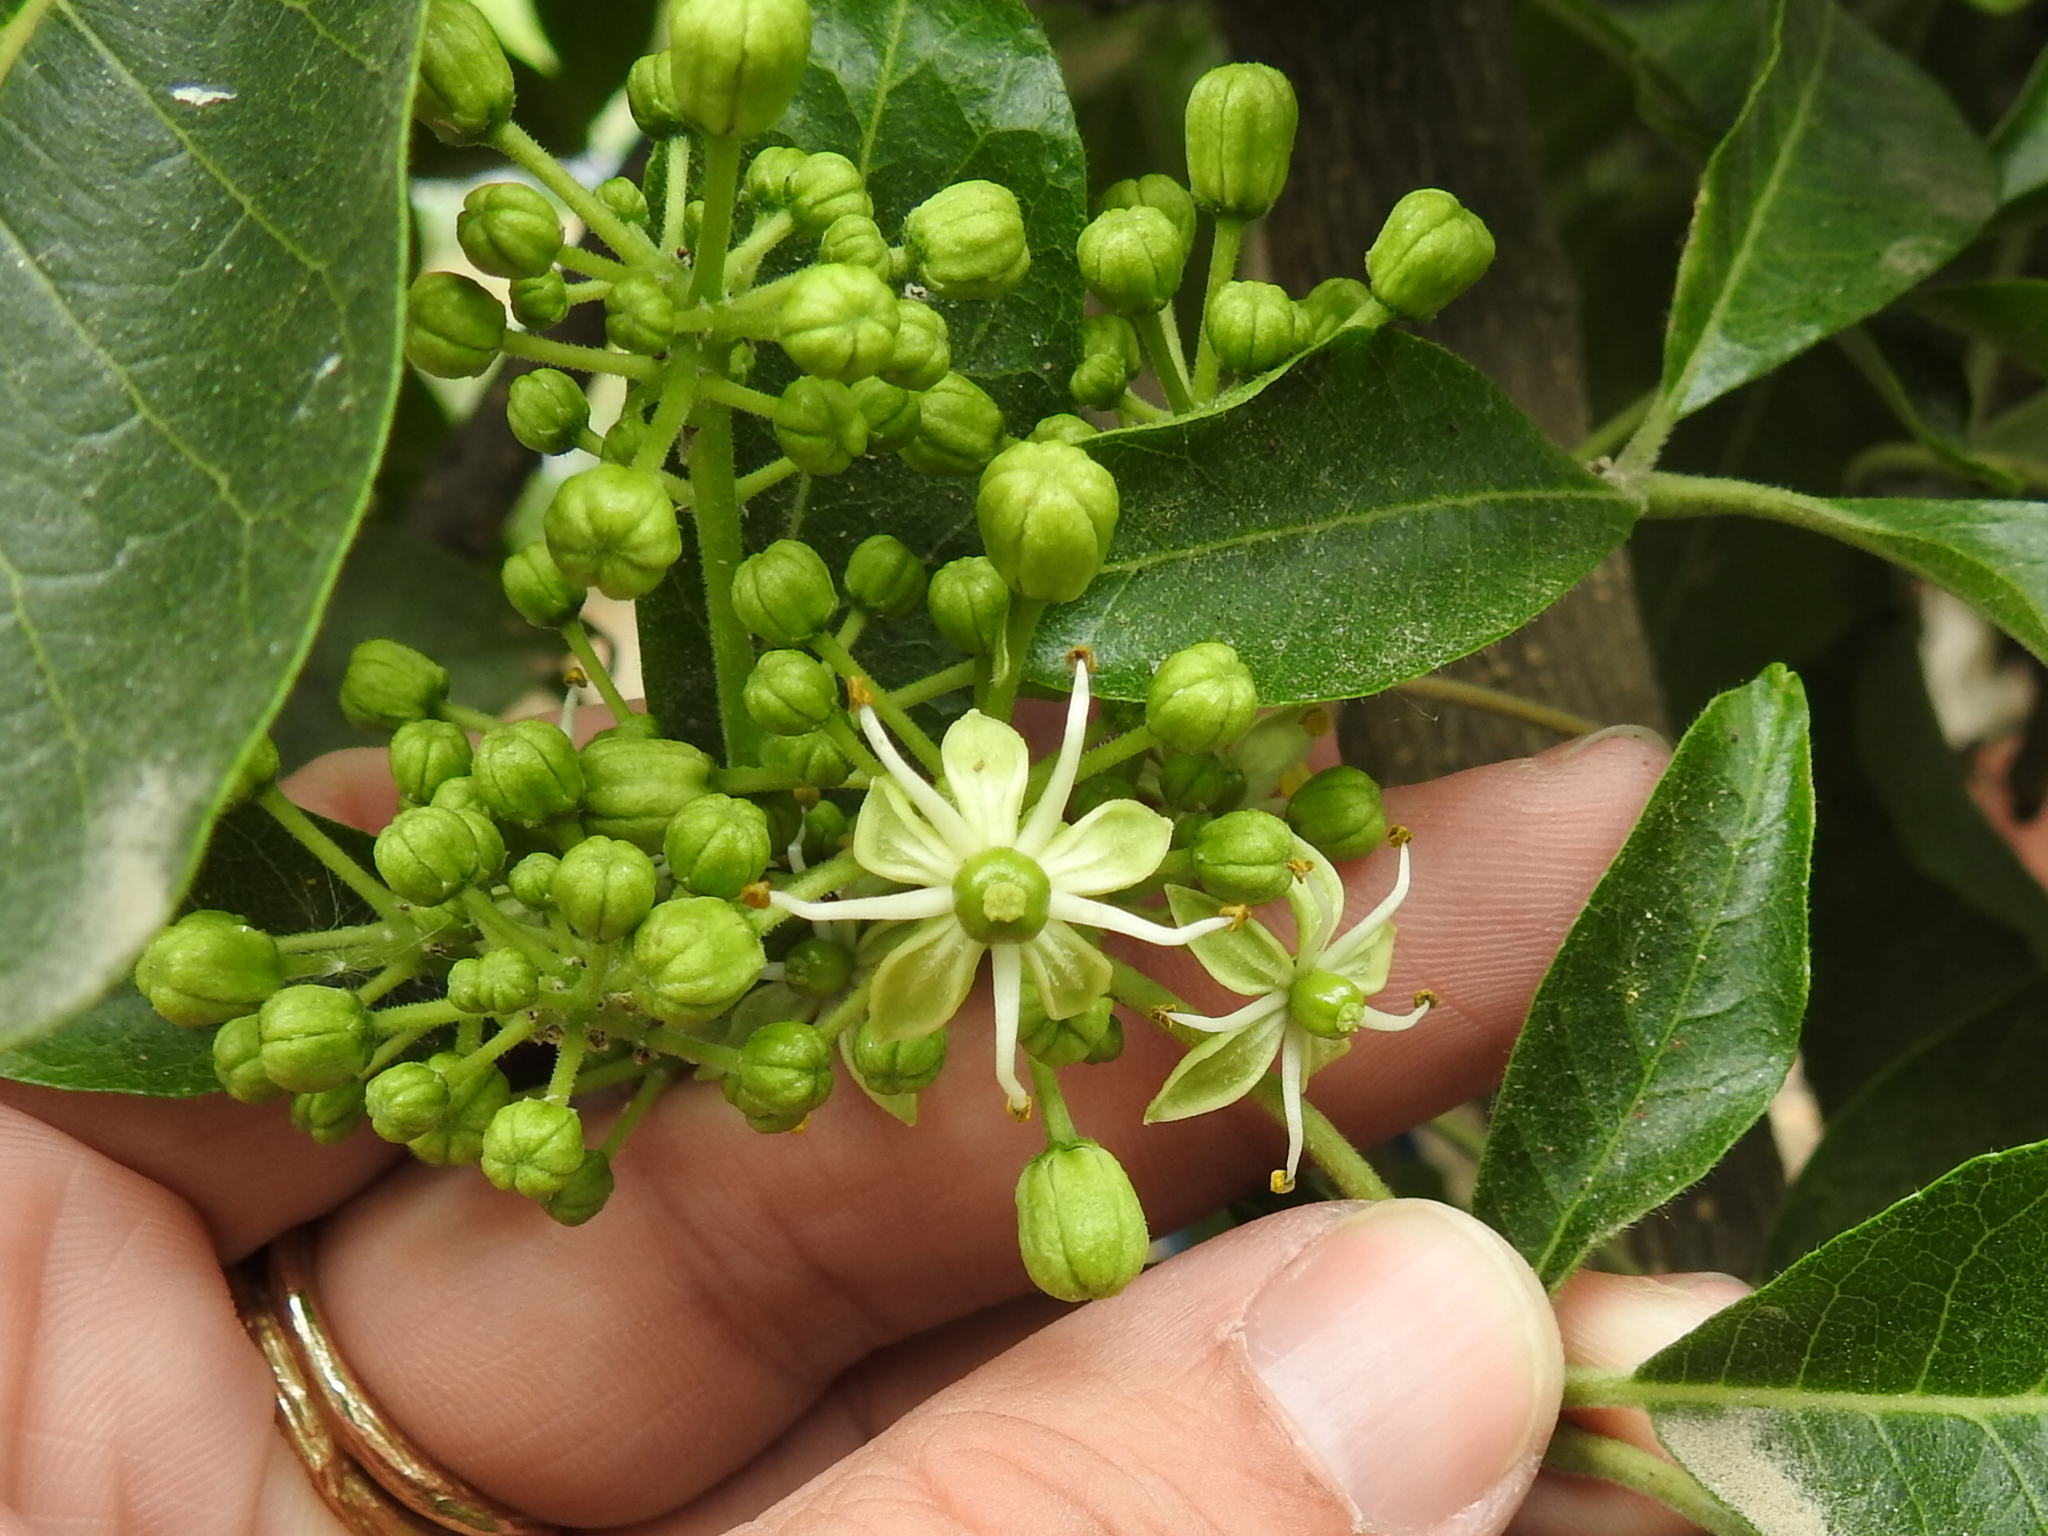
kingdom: Plantae
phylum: Tracheophyta
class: Magnoliopsida
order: Sapindales
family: Rutaceae
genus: Casimiroa
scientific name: Casimiroa edulis
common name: Mexican-apple
